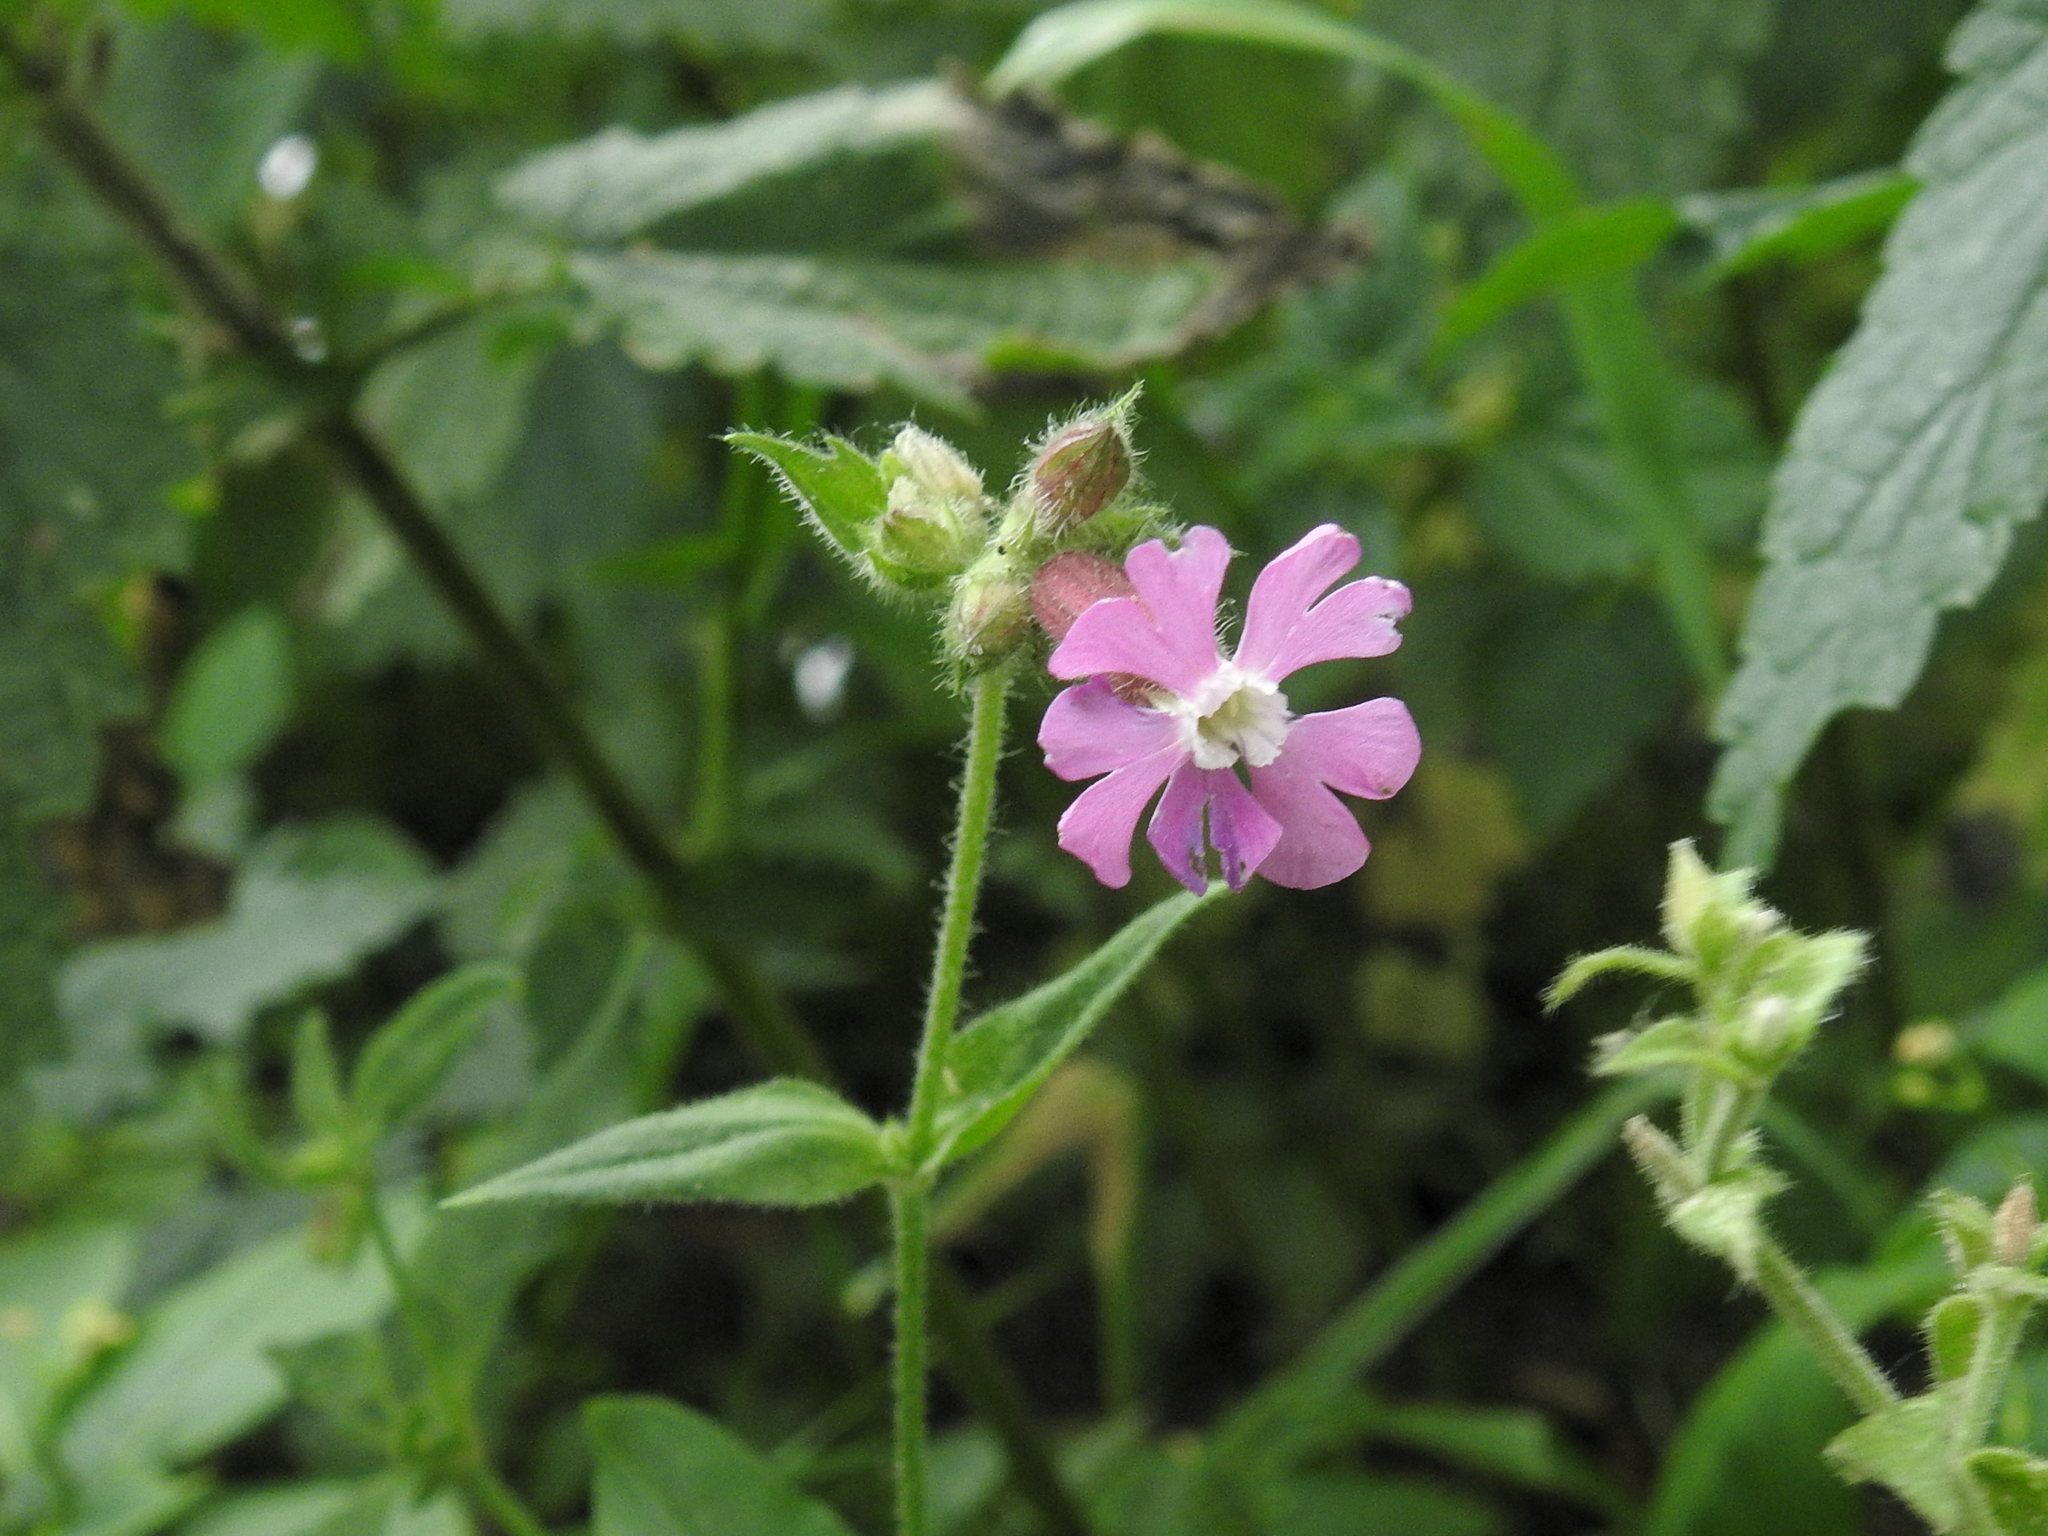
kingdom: Plantae
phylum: Tracheophyta
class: Magnoliopsida
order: Caryophyllales
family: Caryophyllaceae
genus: Silene
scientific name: Silene dioica
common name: Red campion
